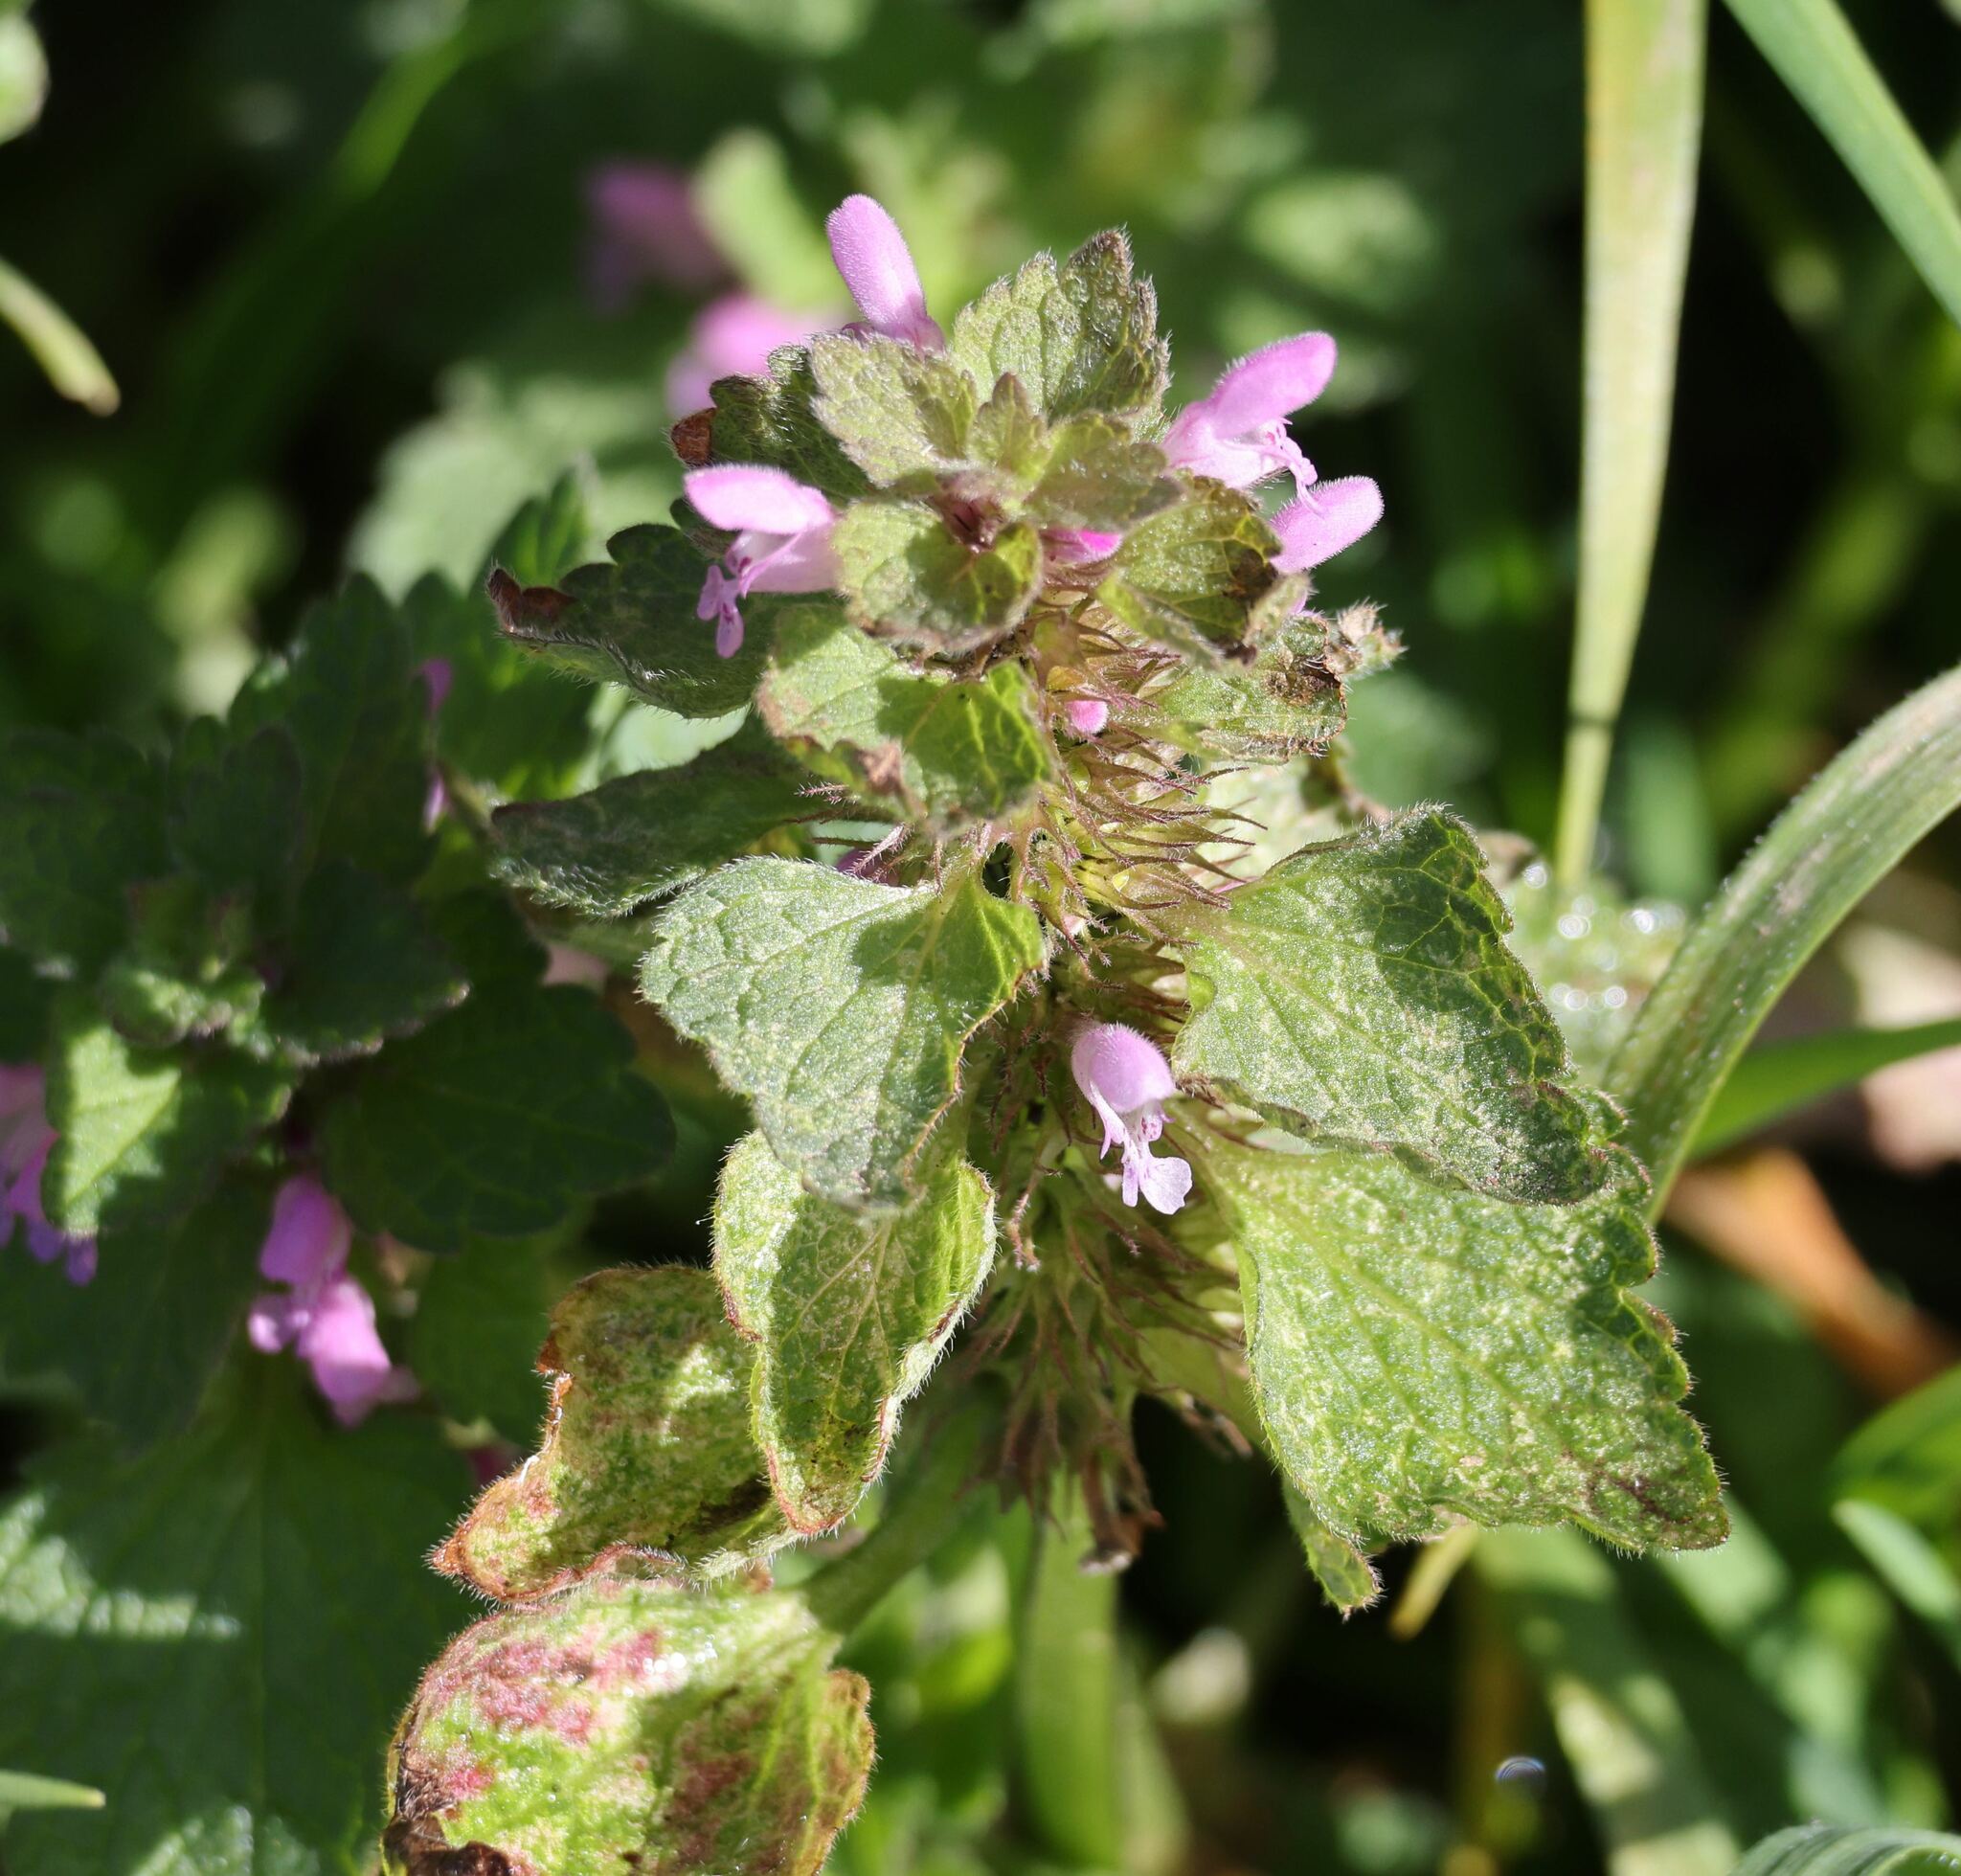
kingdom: Plantae
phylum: Tracheophyta
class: Magnoliopsida
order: Lamiales
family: Lamiaceae
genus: Lamium
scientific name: Lamium purpureum
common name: Red dead-nettle
